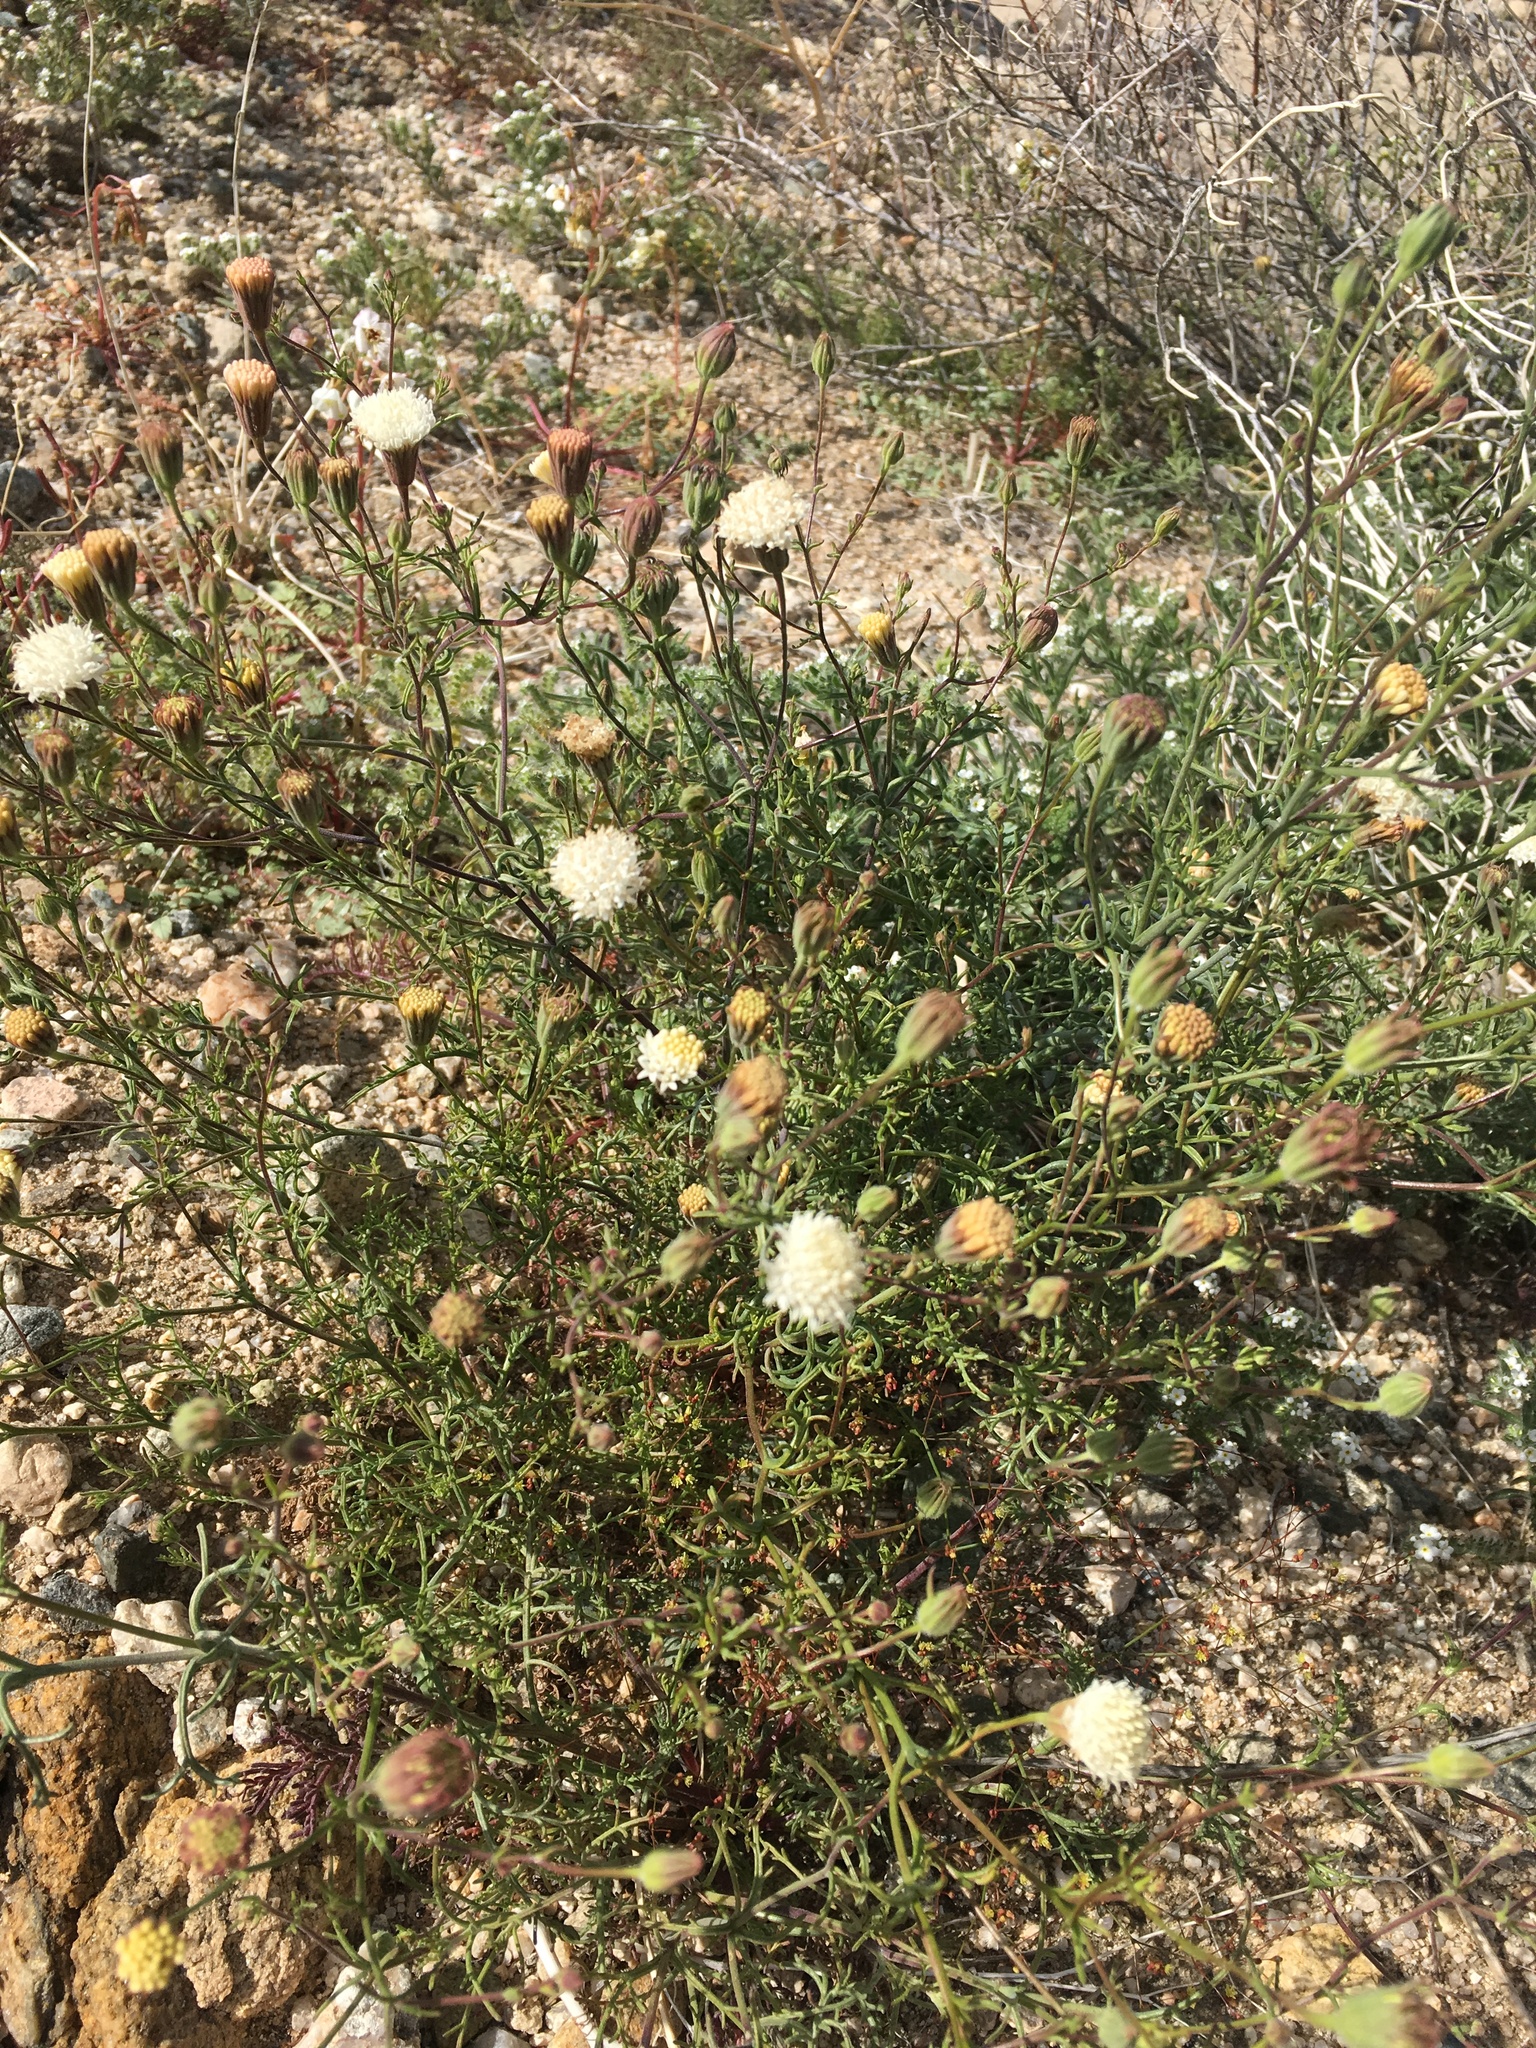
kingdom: Plantae
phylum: Tracheophyta
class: Magnoliopsida
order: Asterales
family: Asteraceae
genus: Chaenactis
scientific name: Chaenactis carphoclinia
